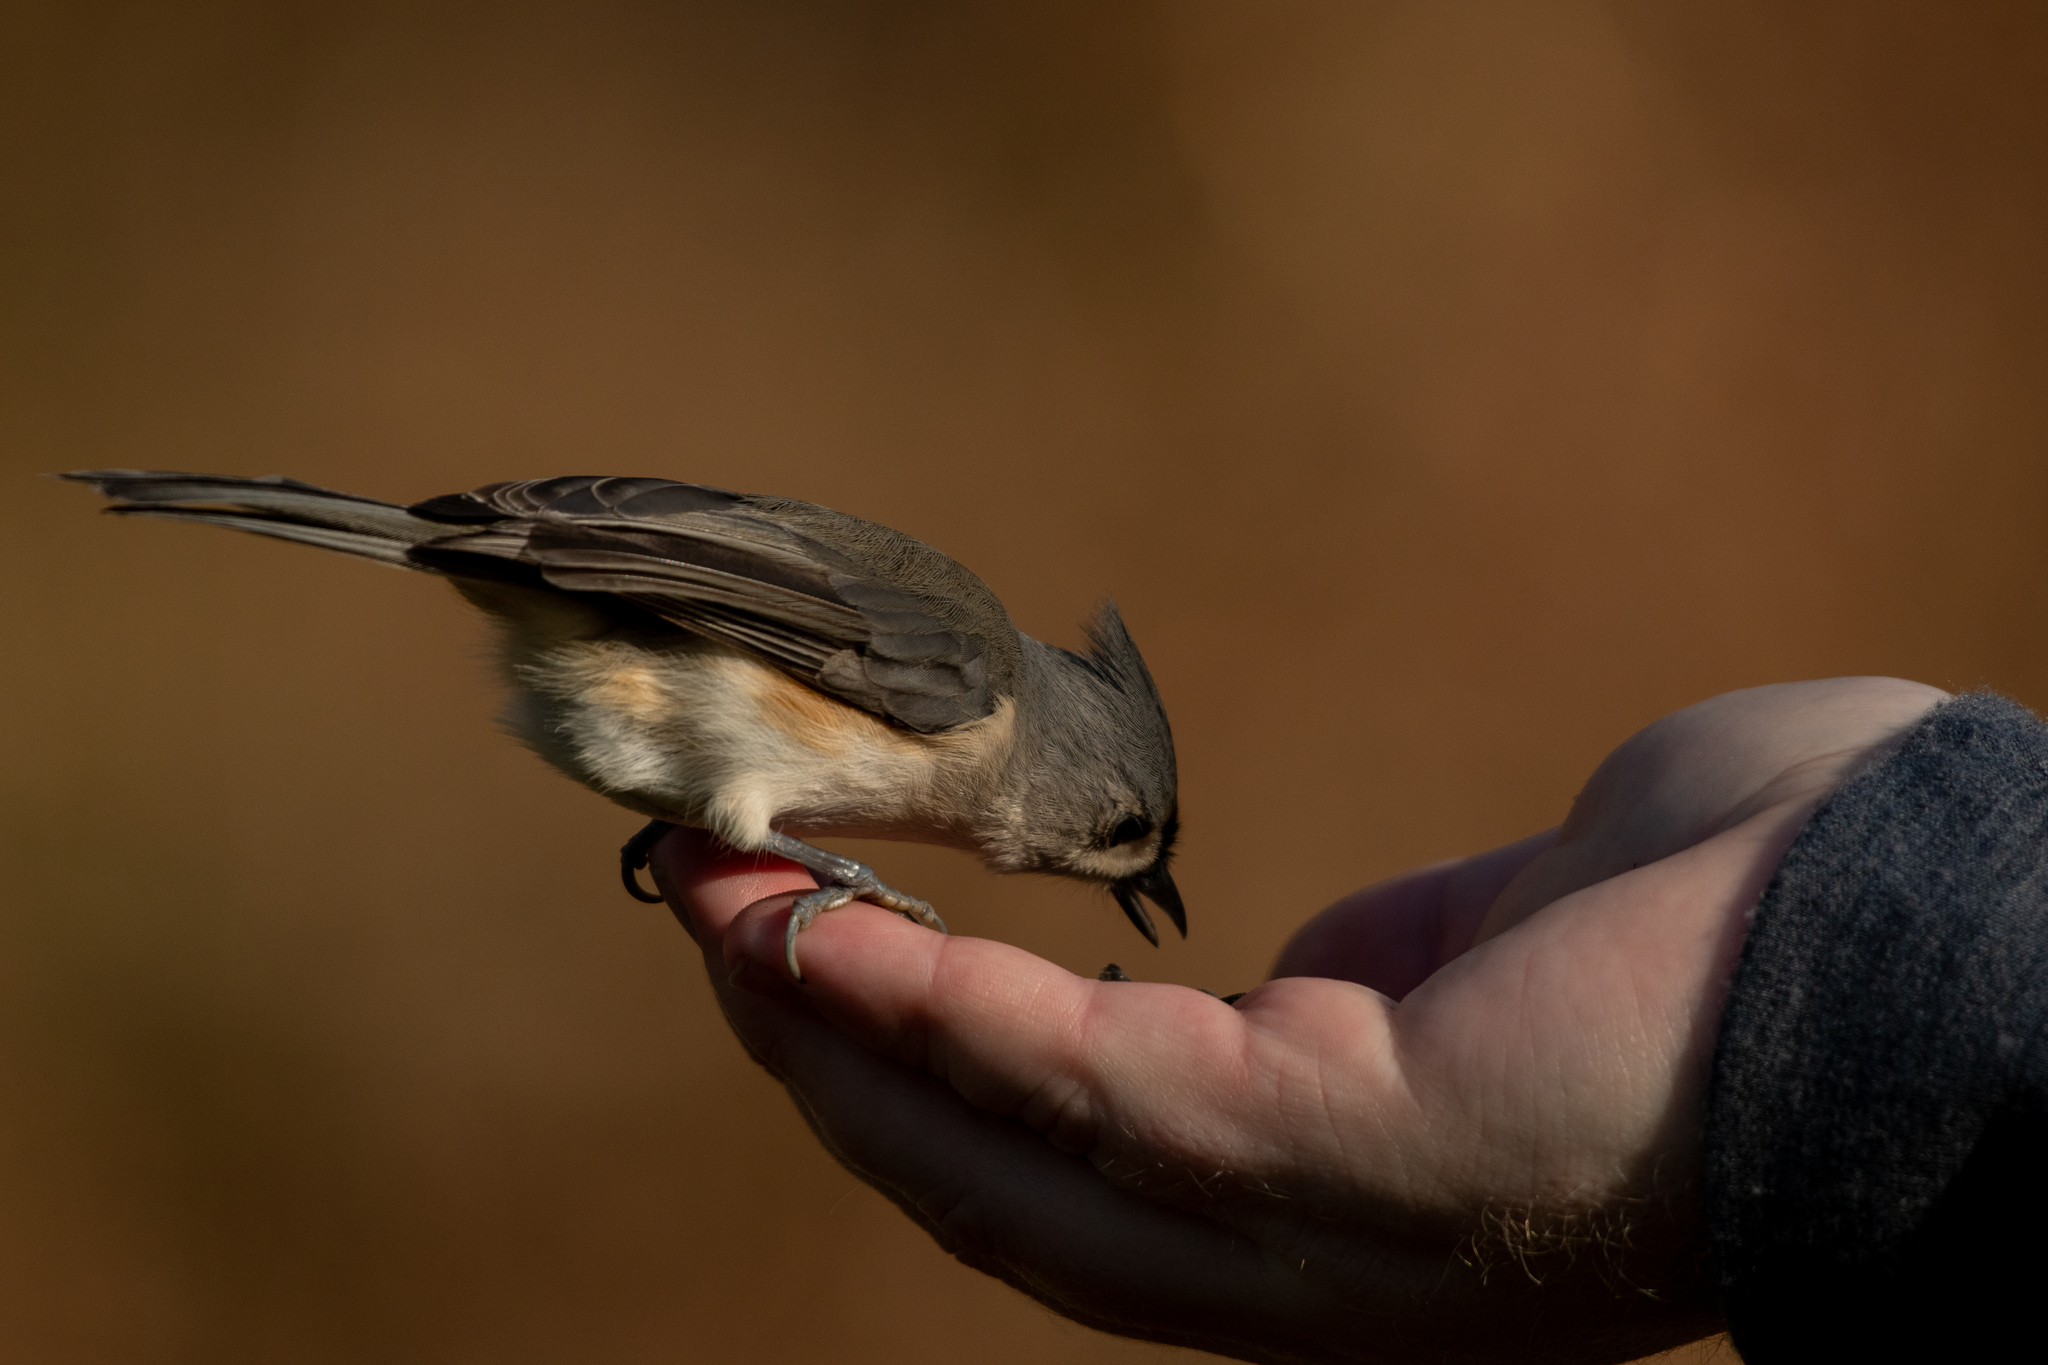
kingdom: Animalia
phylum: Chordata
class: Aves
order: Passeriformes
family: Paridae
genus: Baeolophus
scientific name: Baeolophus bicolor
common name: Tufted titmouse
